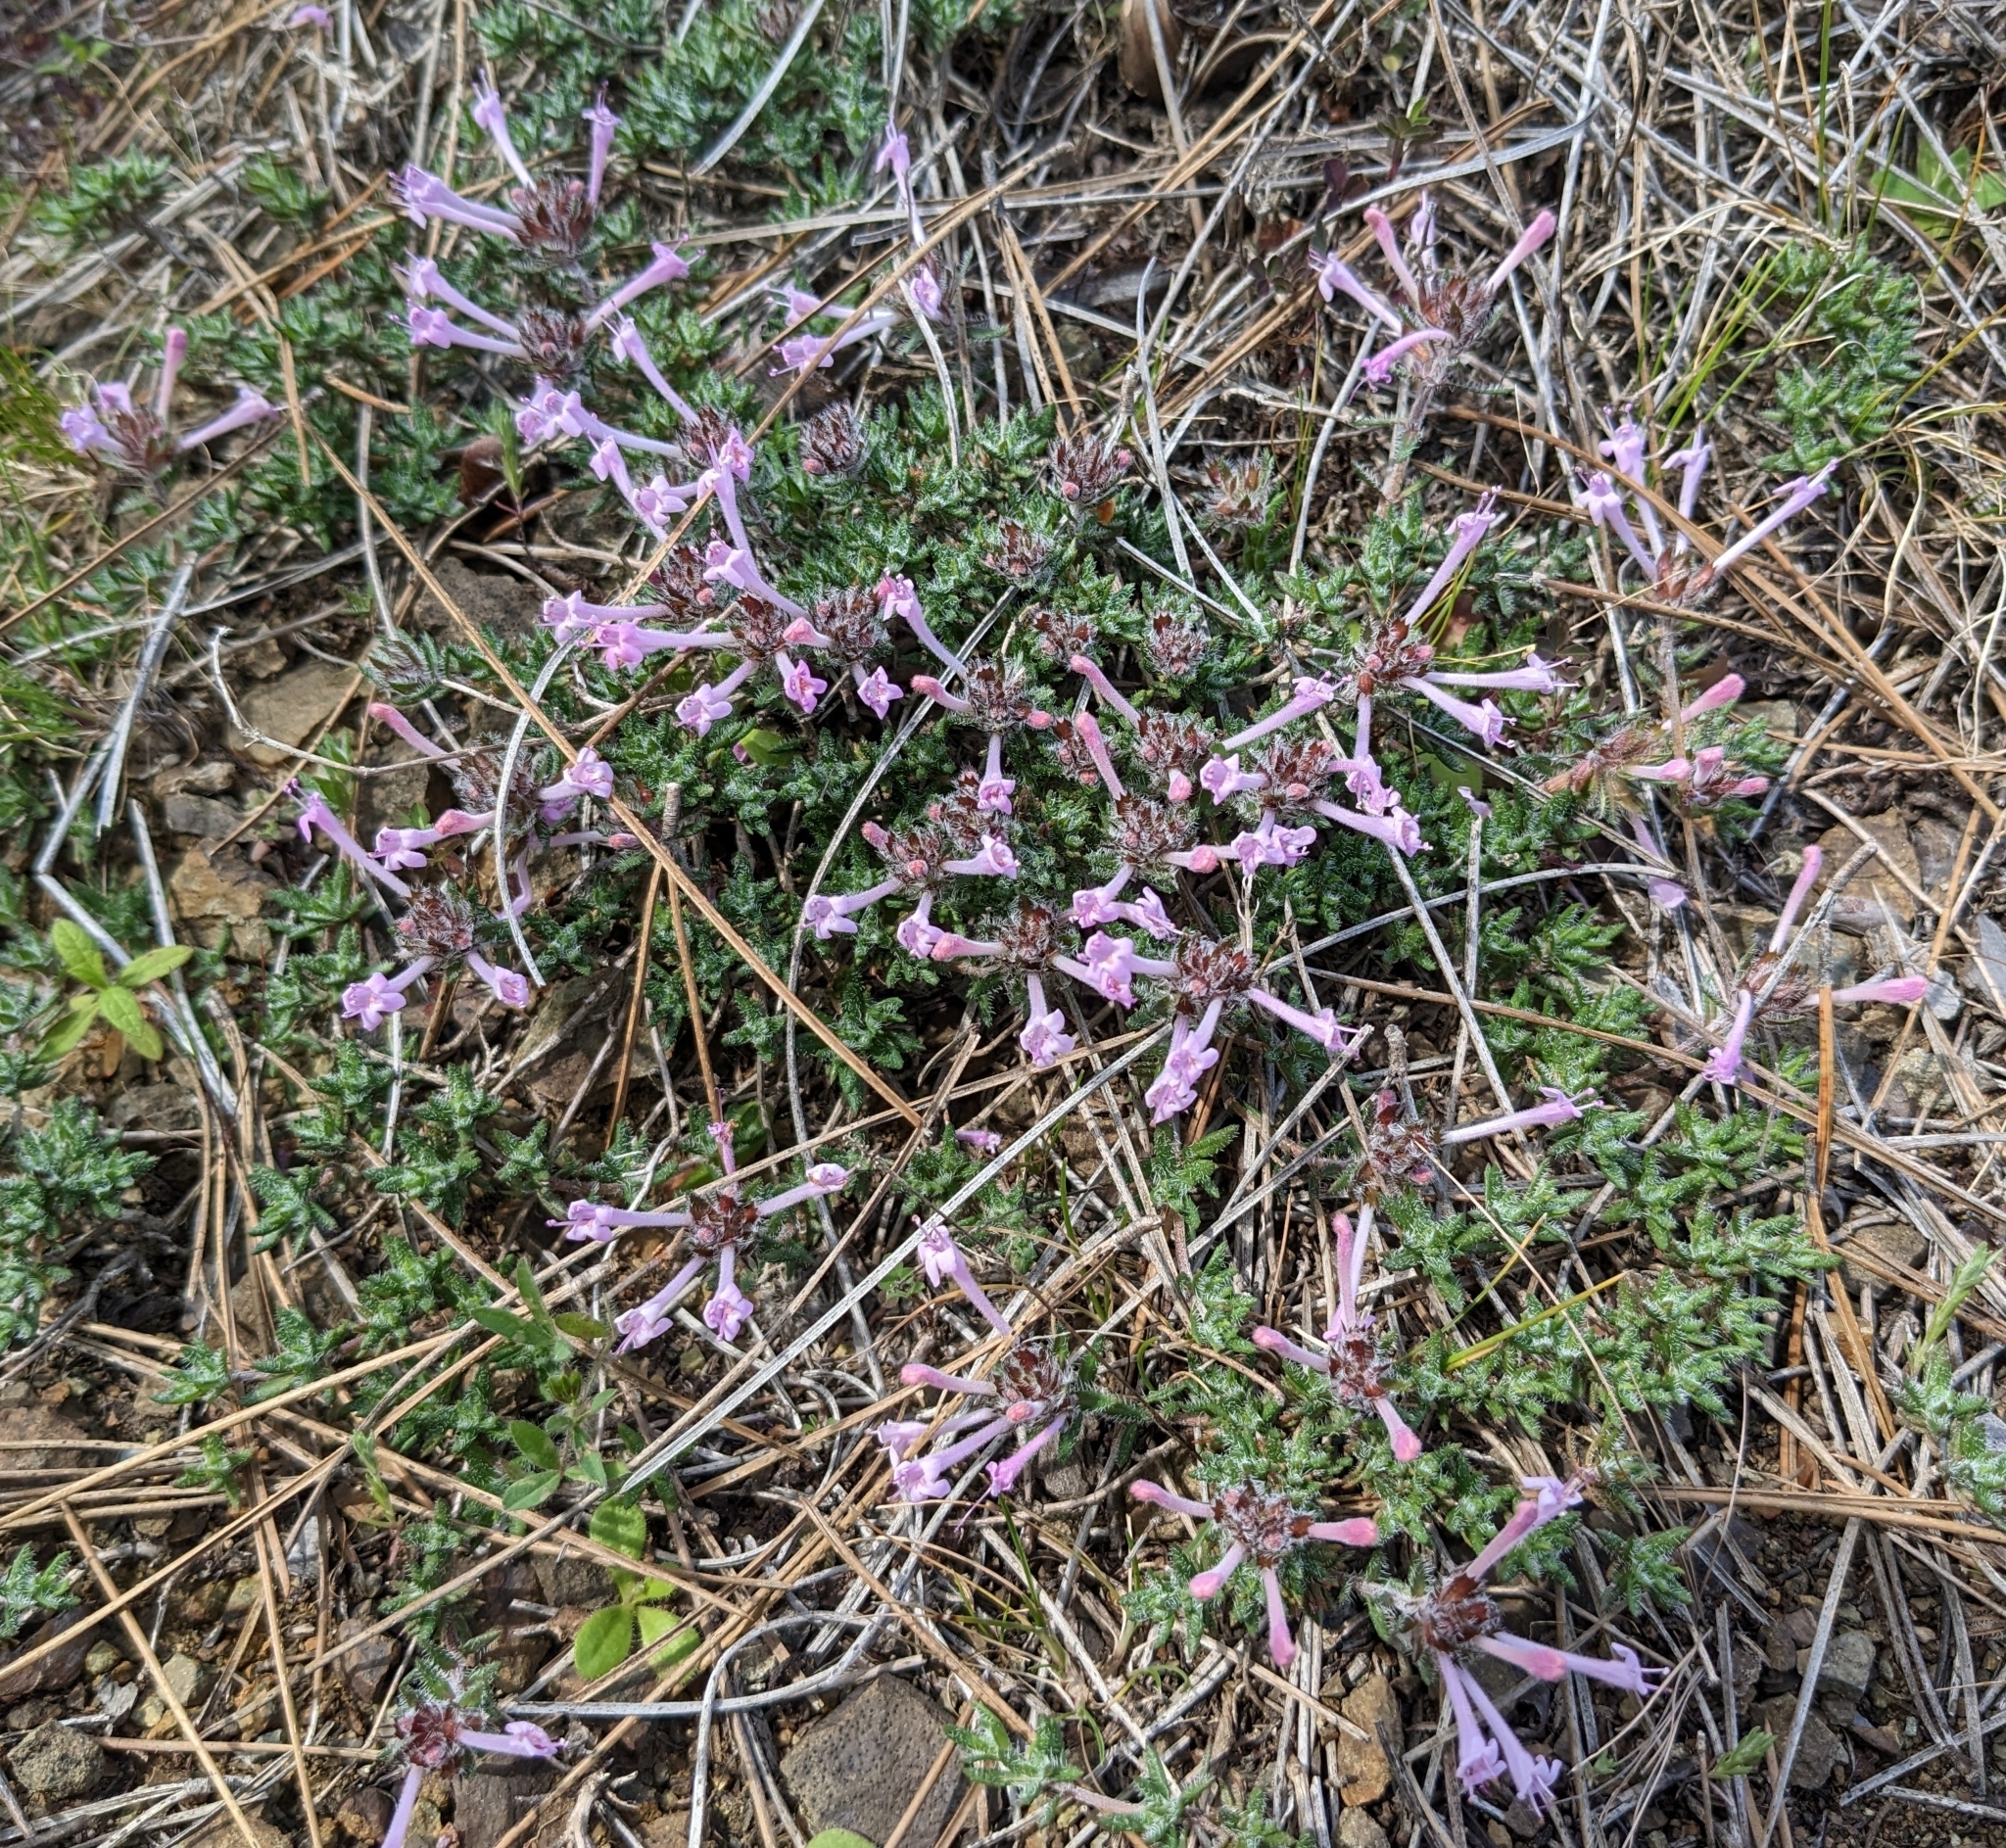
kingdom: Plantae
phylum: Tracheophyta
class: Magnoliopsida
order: Lamiales
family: Lamiaceae
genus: Thymus
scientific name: Thymus integer
